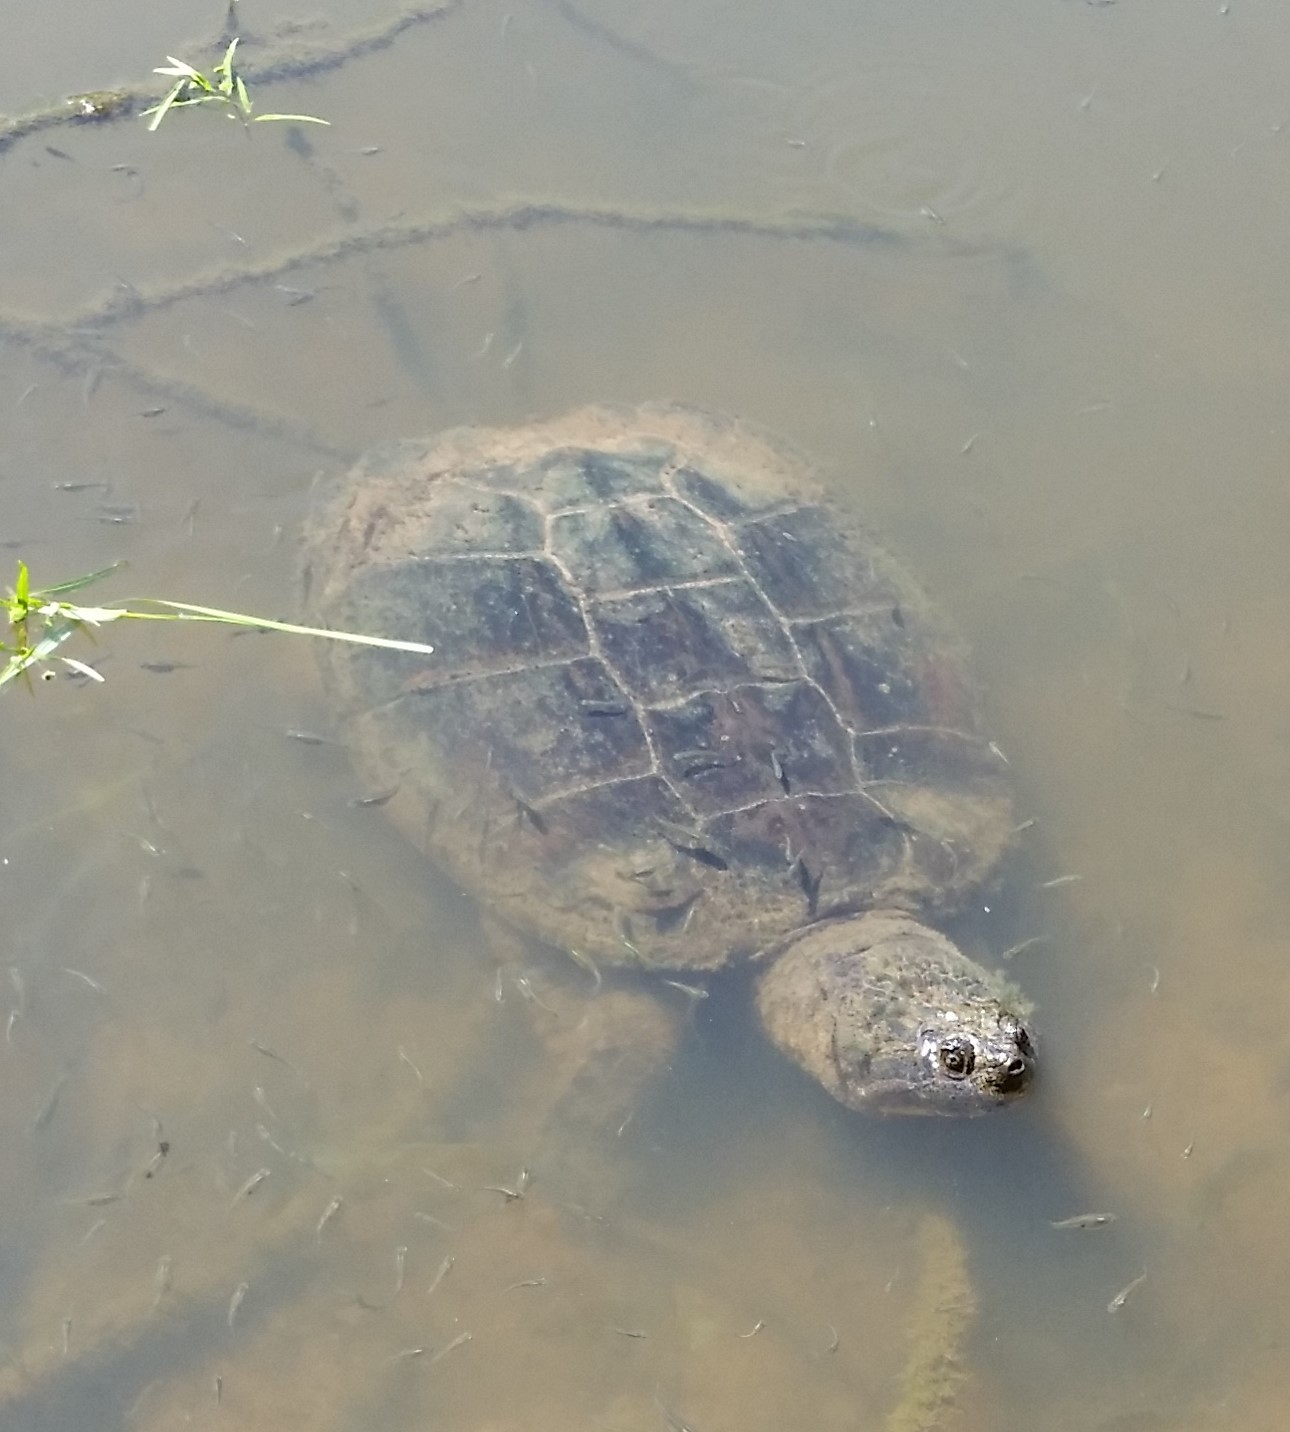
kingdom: Animalia
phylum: Chordata
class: Testudines
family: Chelydridae
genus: Chelydra
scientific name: Chelydra serpentina
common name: Common snapping turtle
